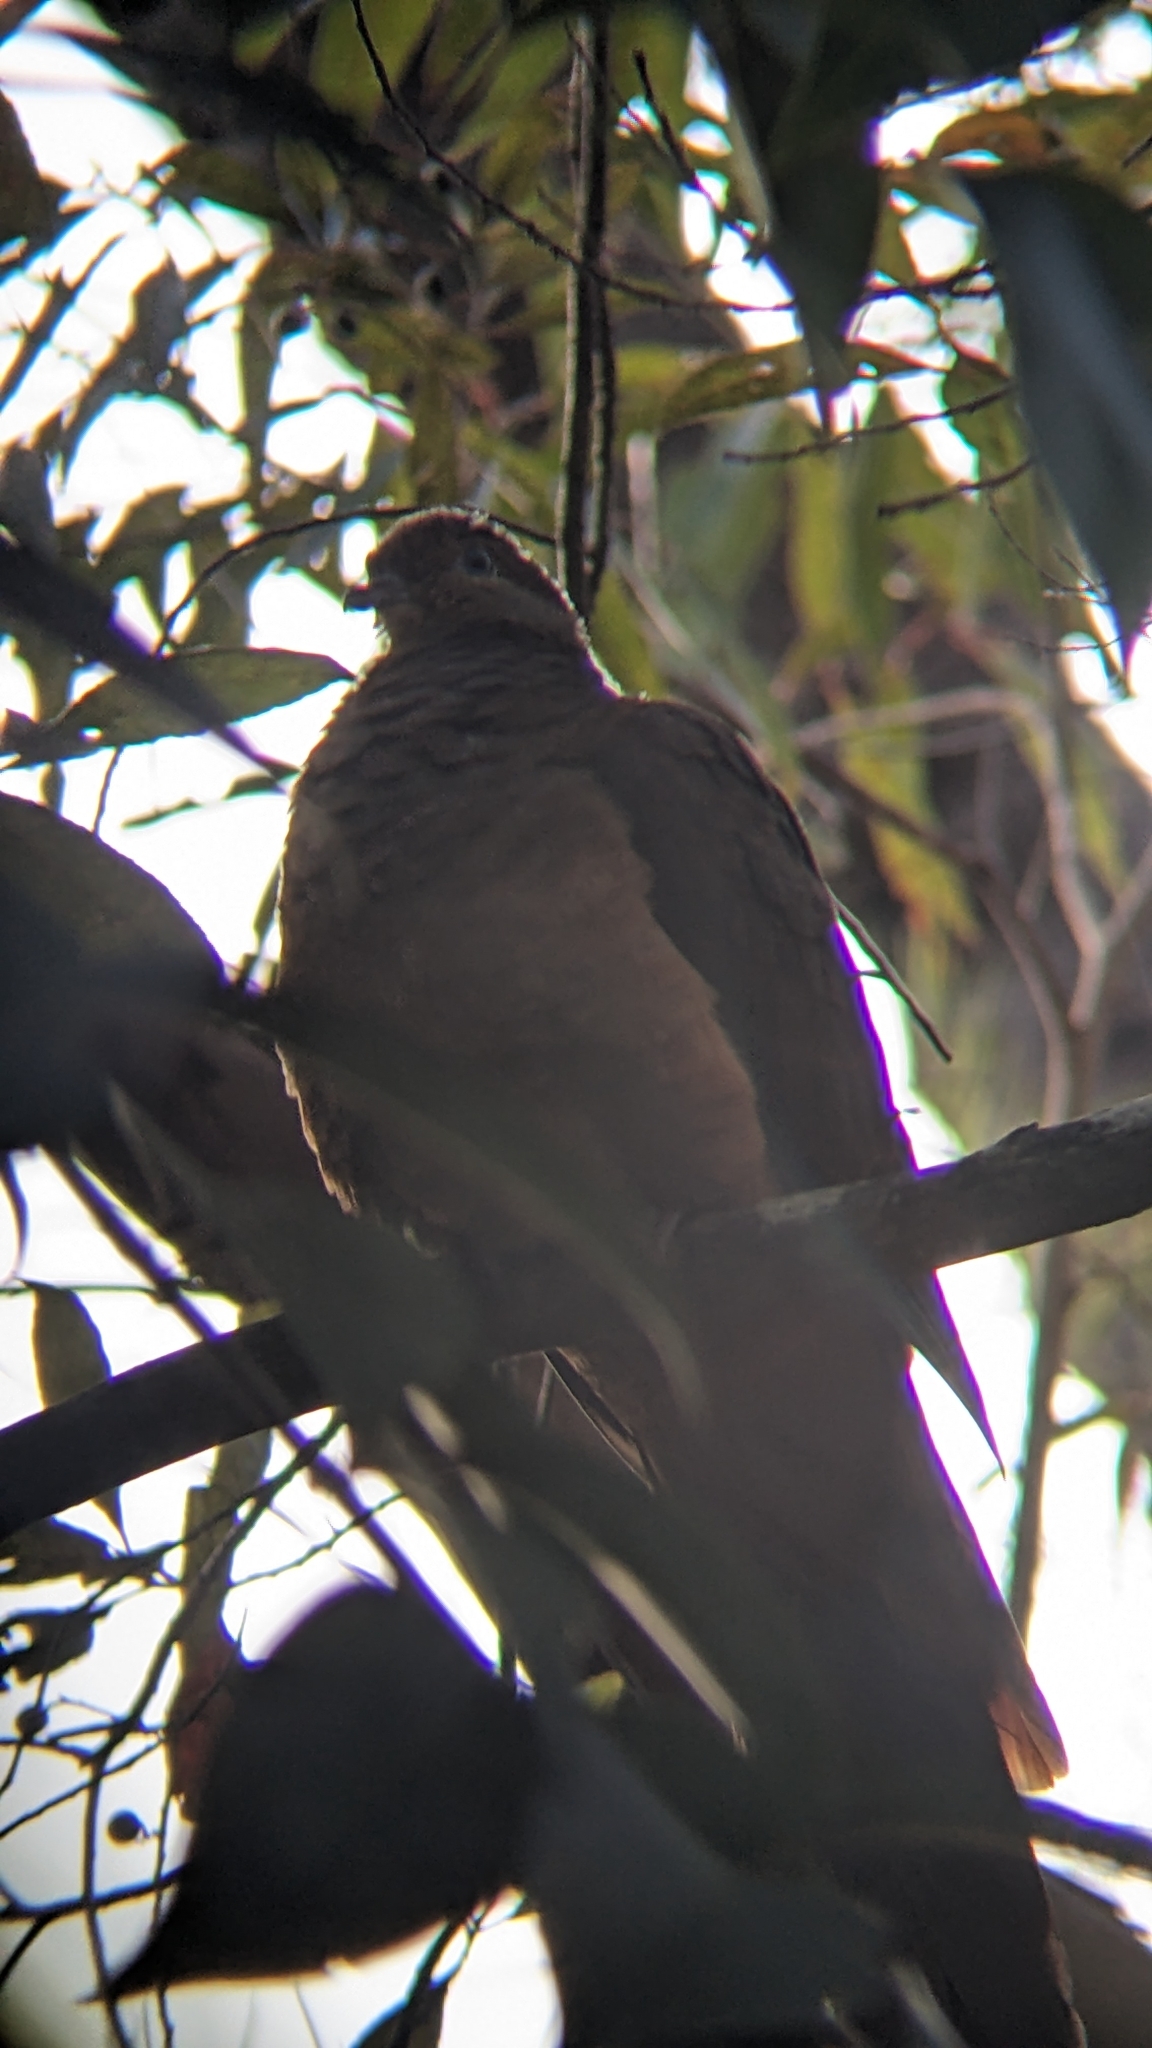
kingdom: Animalia
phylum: Chordata
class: Aves
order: Columbiformes
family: Columbidae
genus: Macropygia
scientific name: Macropygia phasianella
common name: Brown cuckoo-dove
